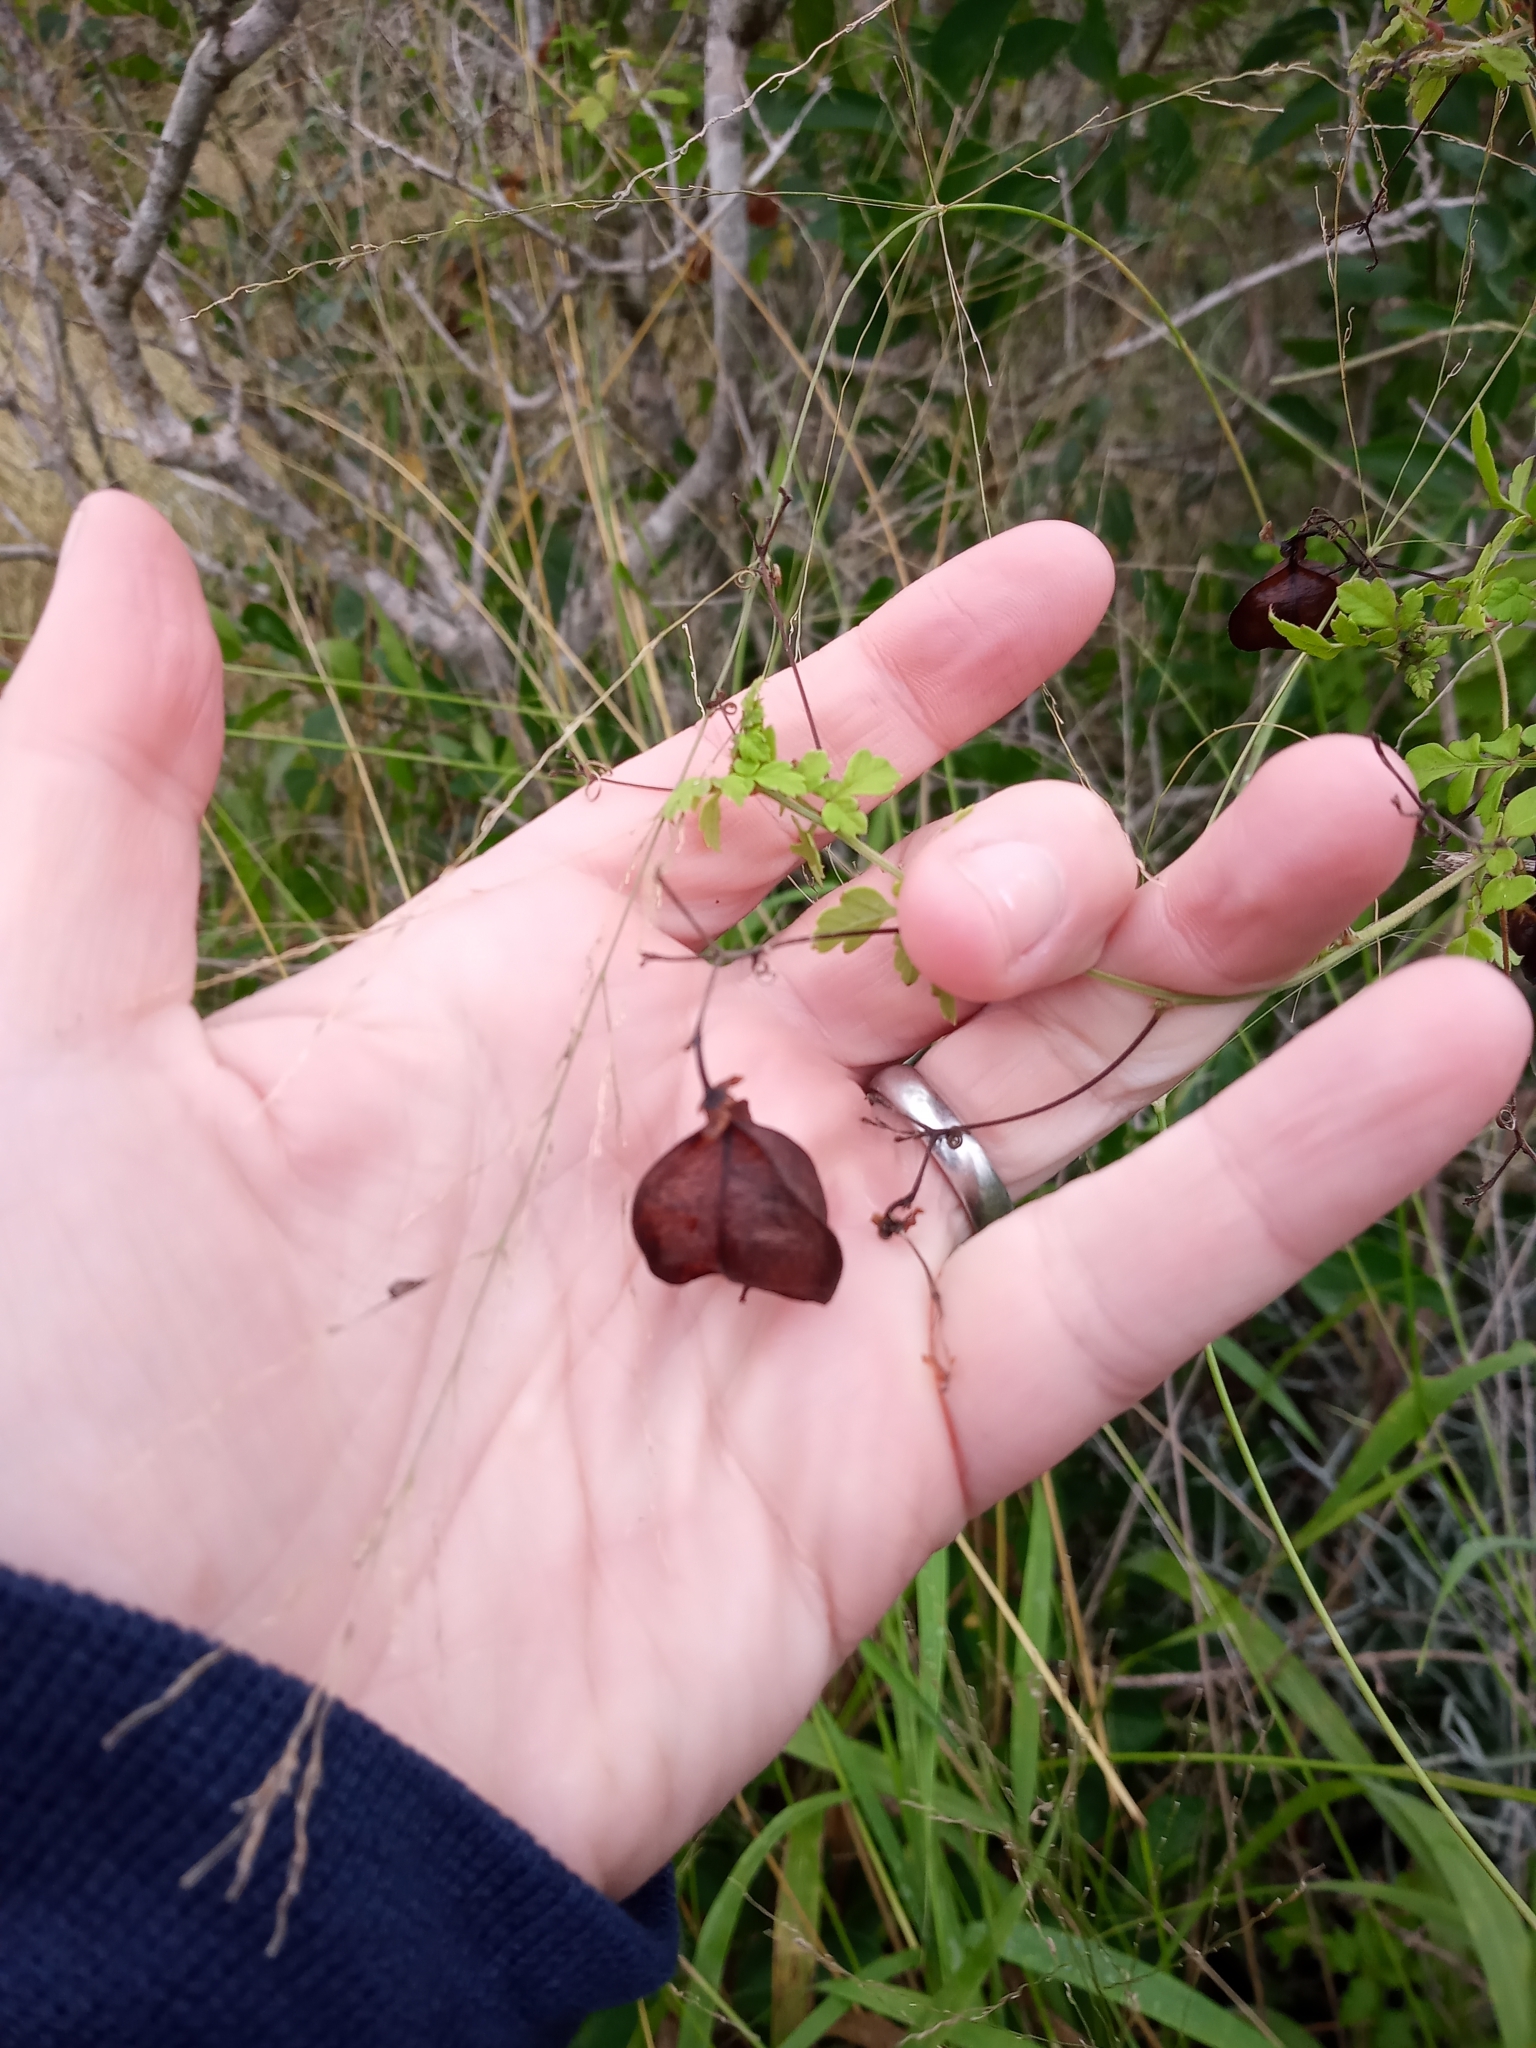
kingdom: Plantae
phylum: Tracheophyta
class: Magnoliopsida
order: Sapindales
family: Sapindaceae
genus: Cardiospermum
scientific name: Cardiospermum halicacabum
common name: Balloon vine
